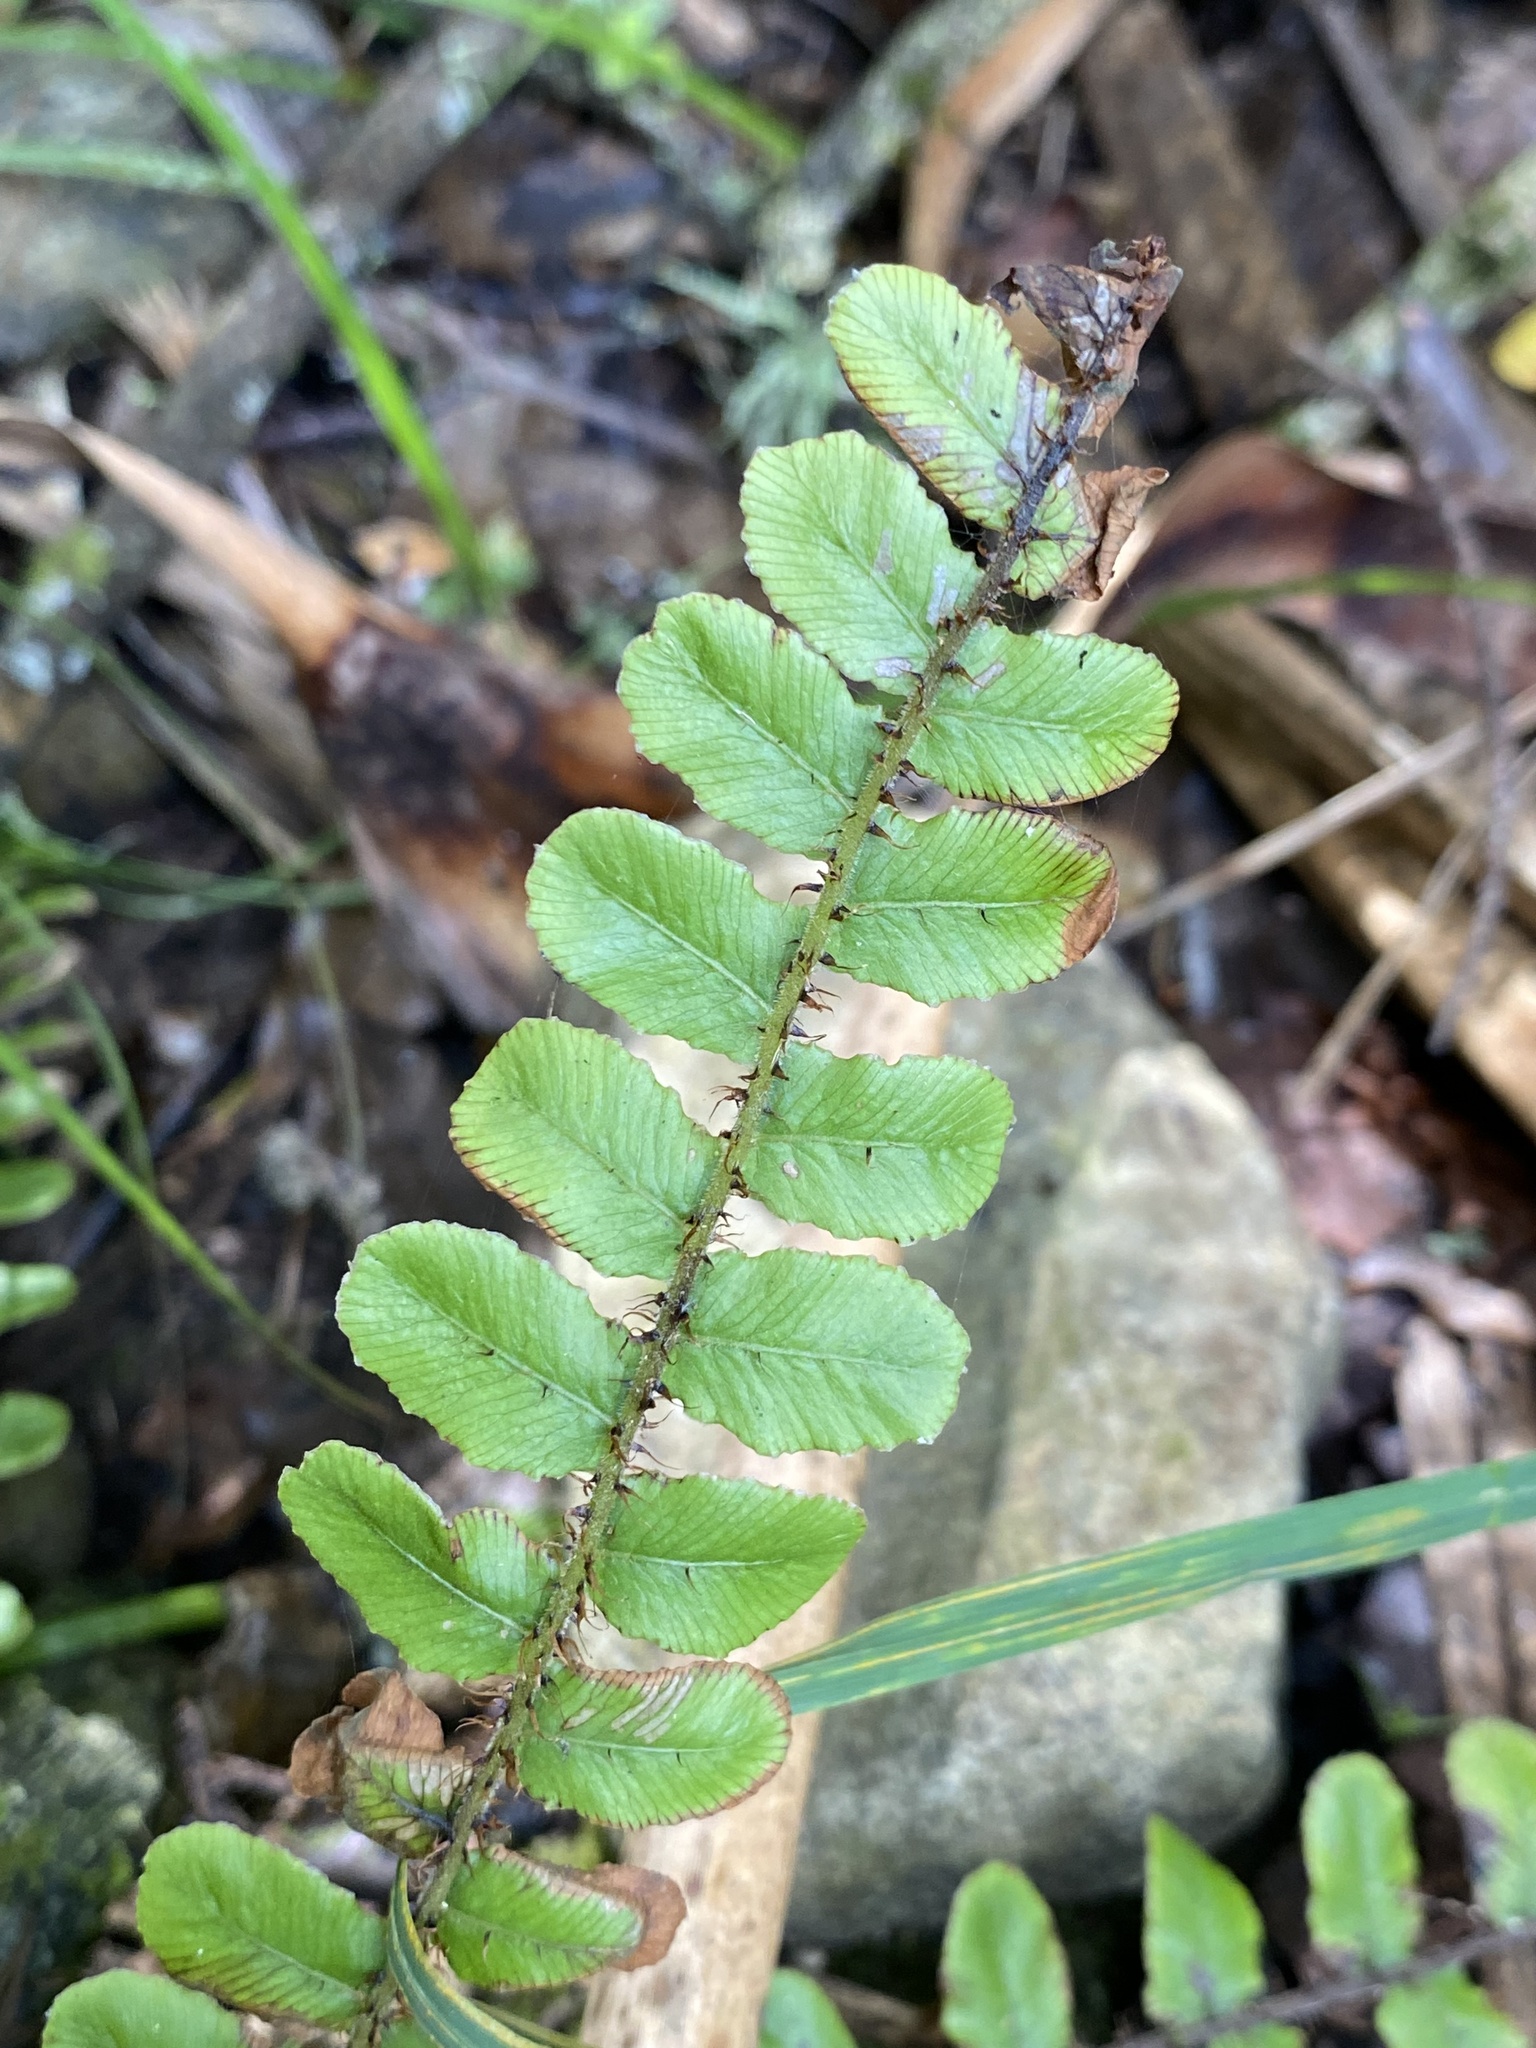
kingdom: Plantae
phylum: Tracheophyta
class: Polypodiopsida
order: Polypodiales
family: Blechnaceae
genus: Cranfillia
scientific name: Cranfillia fluviatilis
